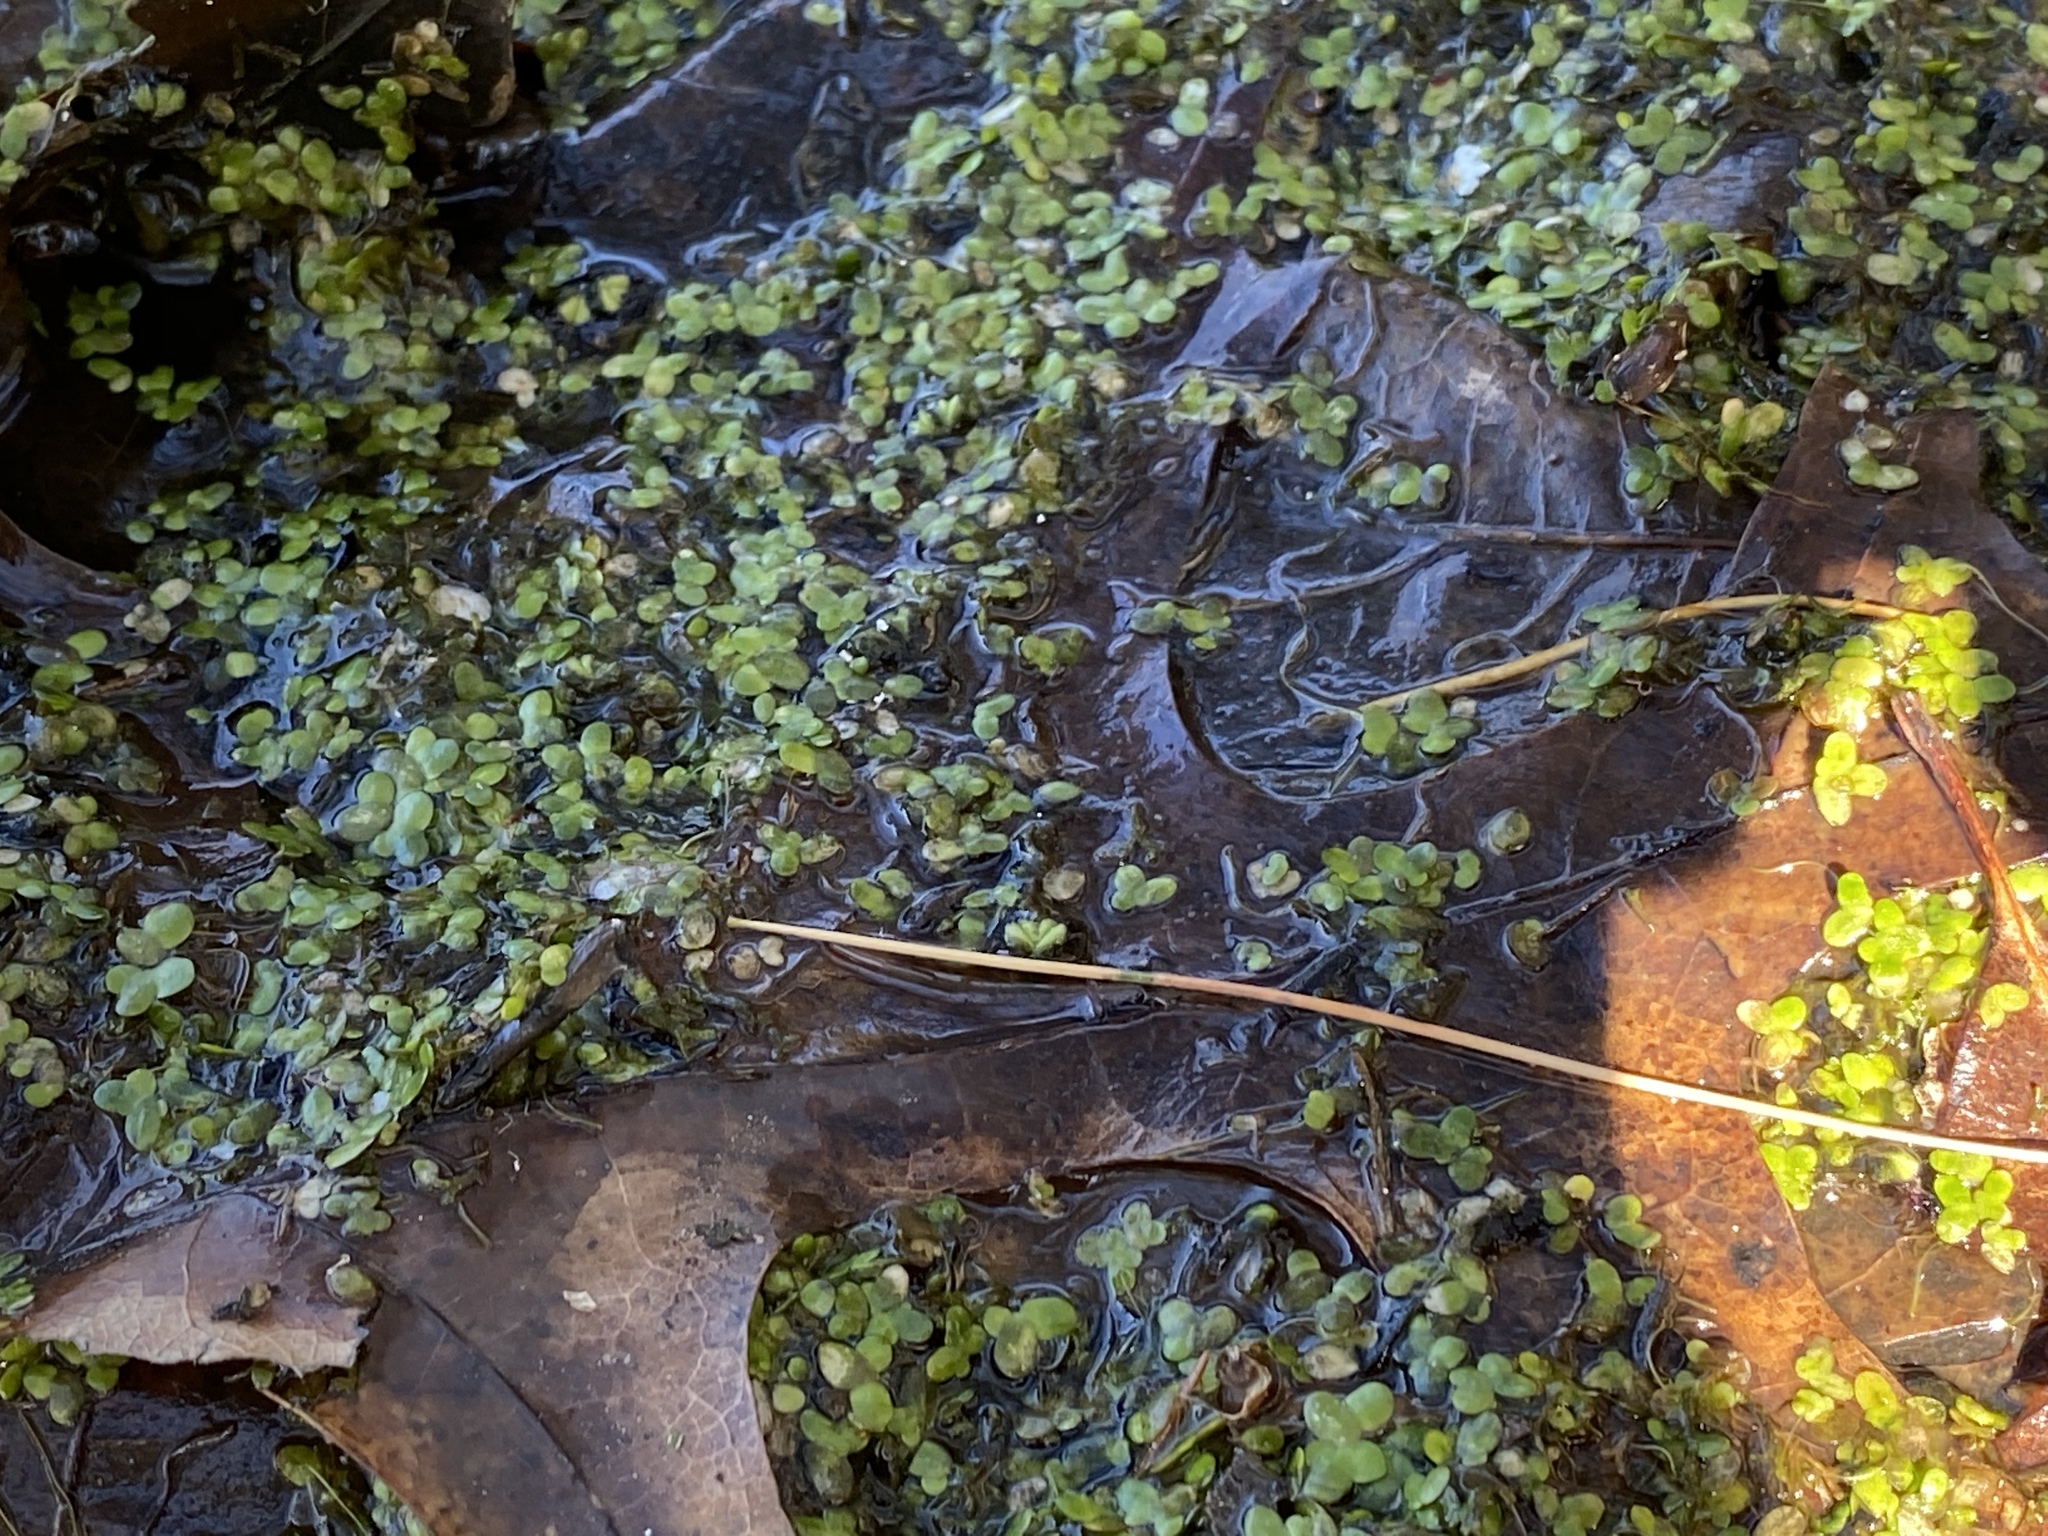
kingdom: Plantae
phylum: Tracheophyta
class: Liliopsida
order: Alismatales
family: Araceae
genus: Lemna
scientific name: Lemna minor
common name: Common duckweed
